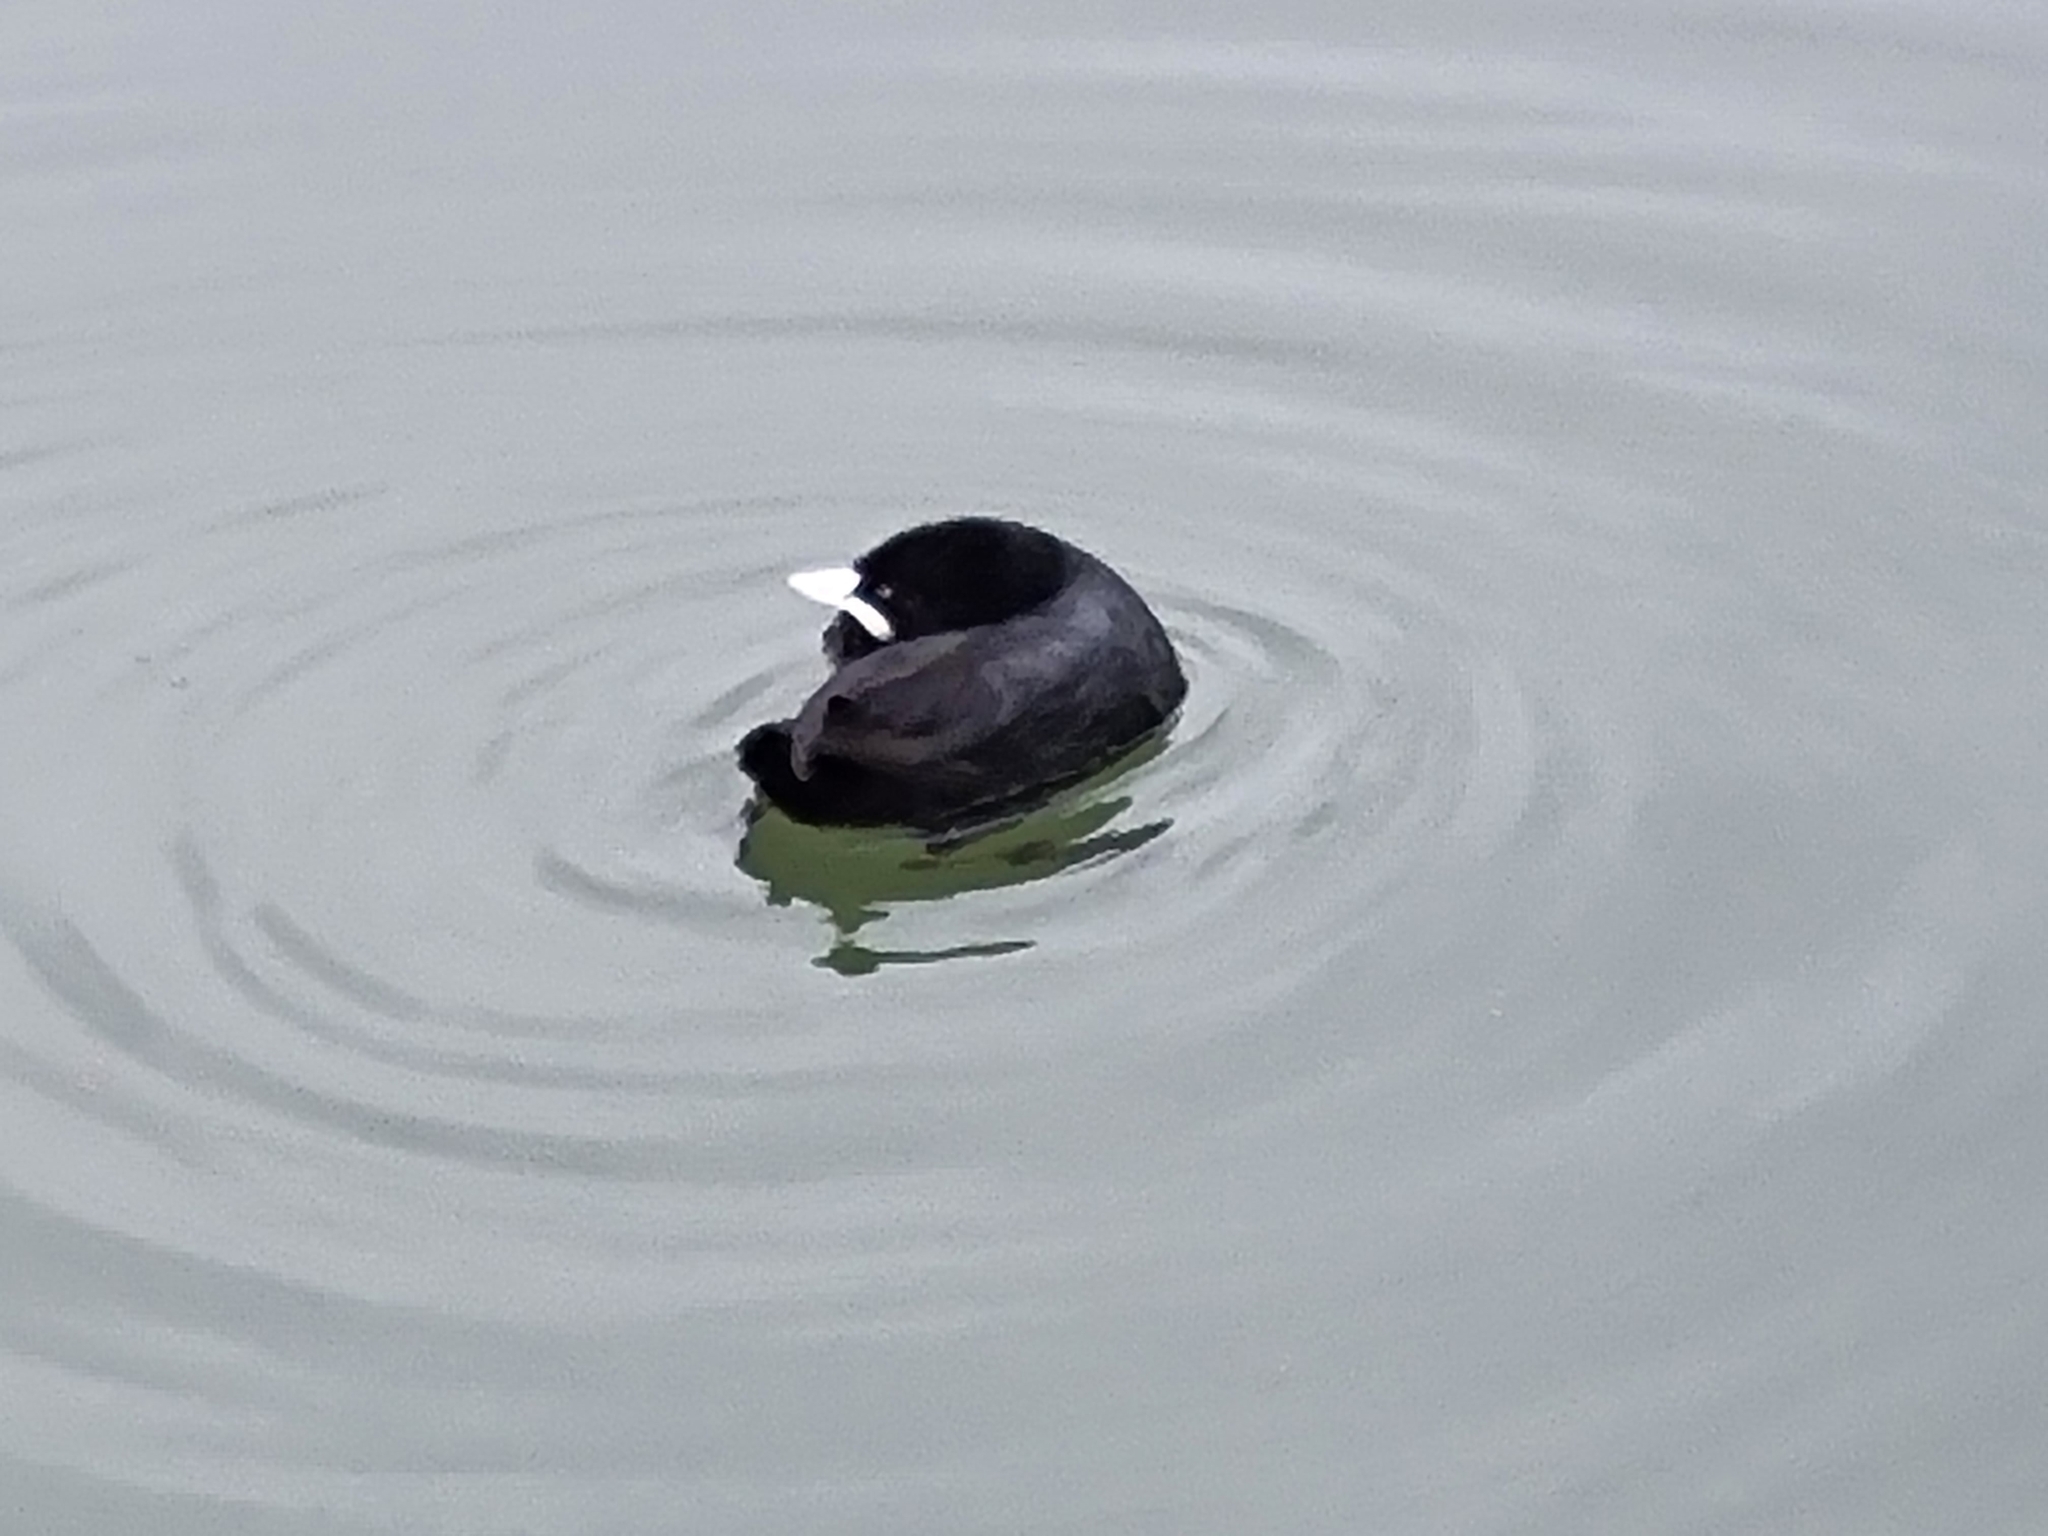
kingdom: Animalia
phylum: Chordata
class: Aves
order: Gruiformes
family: Rallidae
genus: Fulica
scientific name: Fulica atra
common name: Eurasian coot
